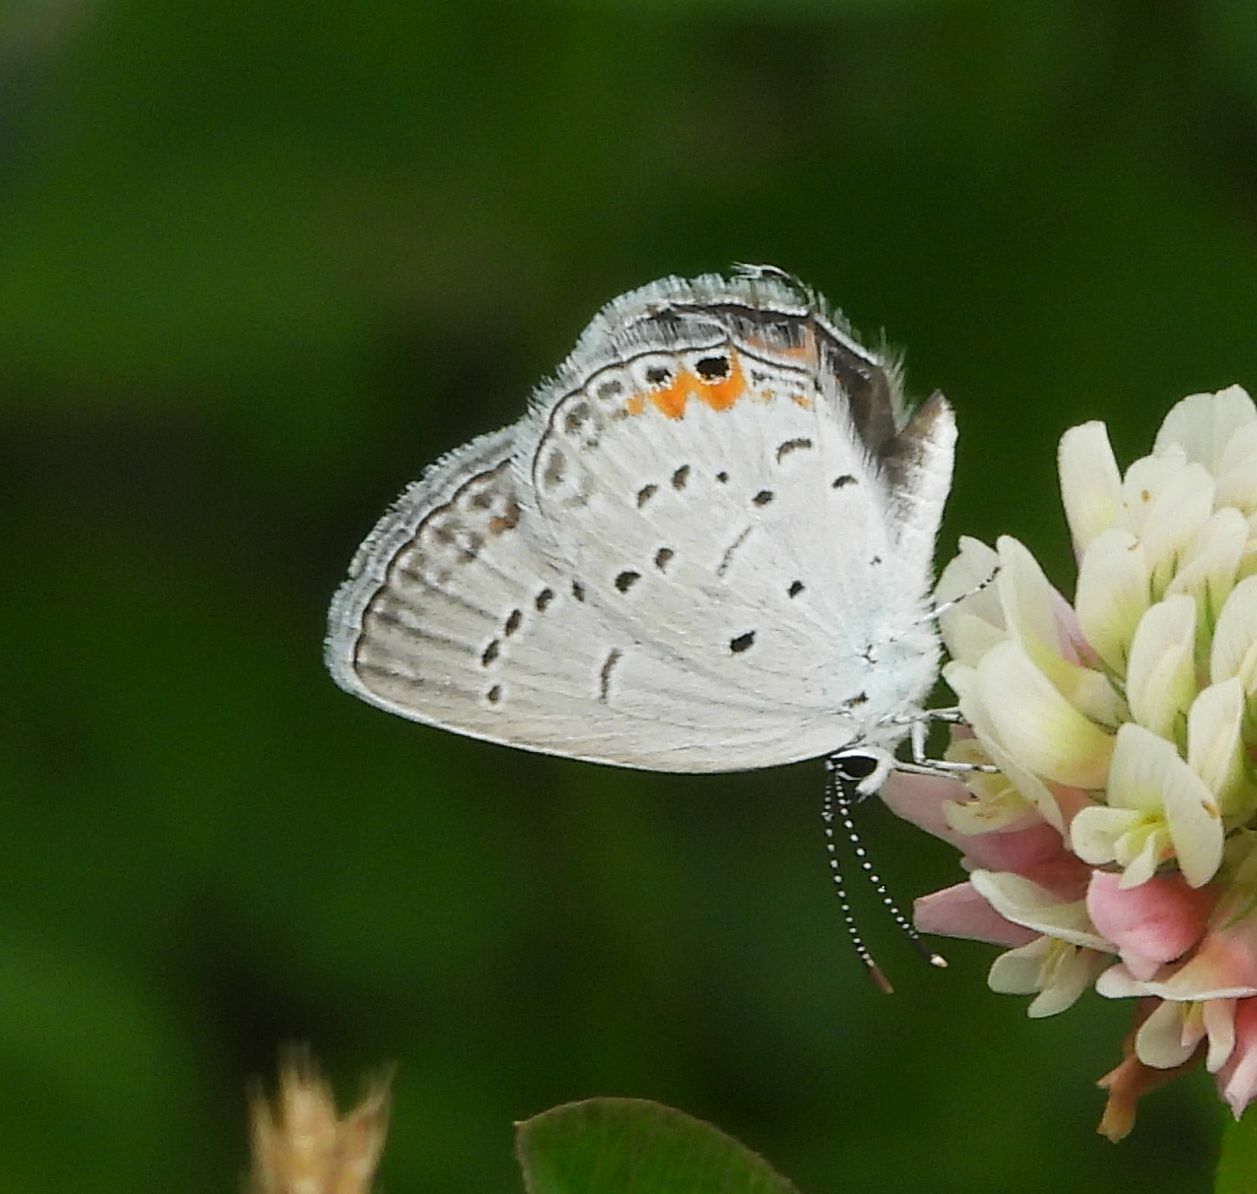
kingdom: Animalia
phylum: Arthropoda
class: Insecta
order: Lepidoptera
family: Lycaenidae
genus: Elkalyce
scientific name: Elkalyce comyntas
